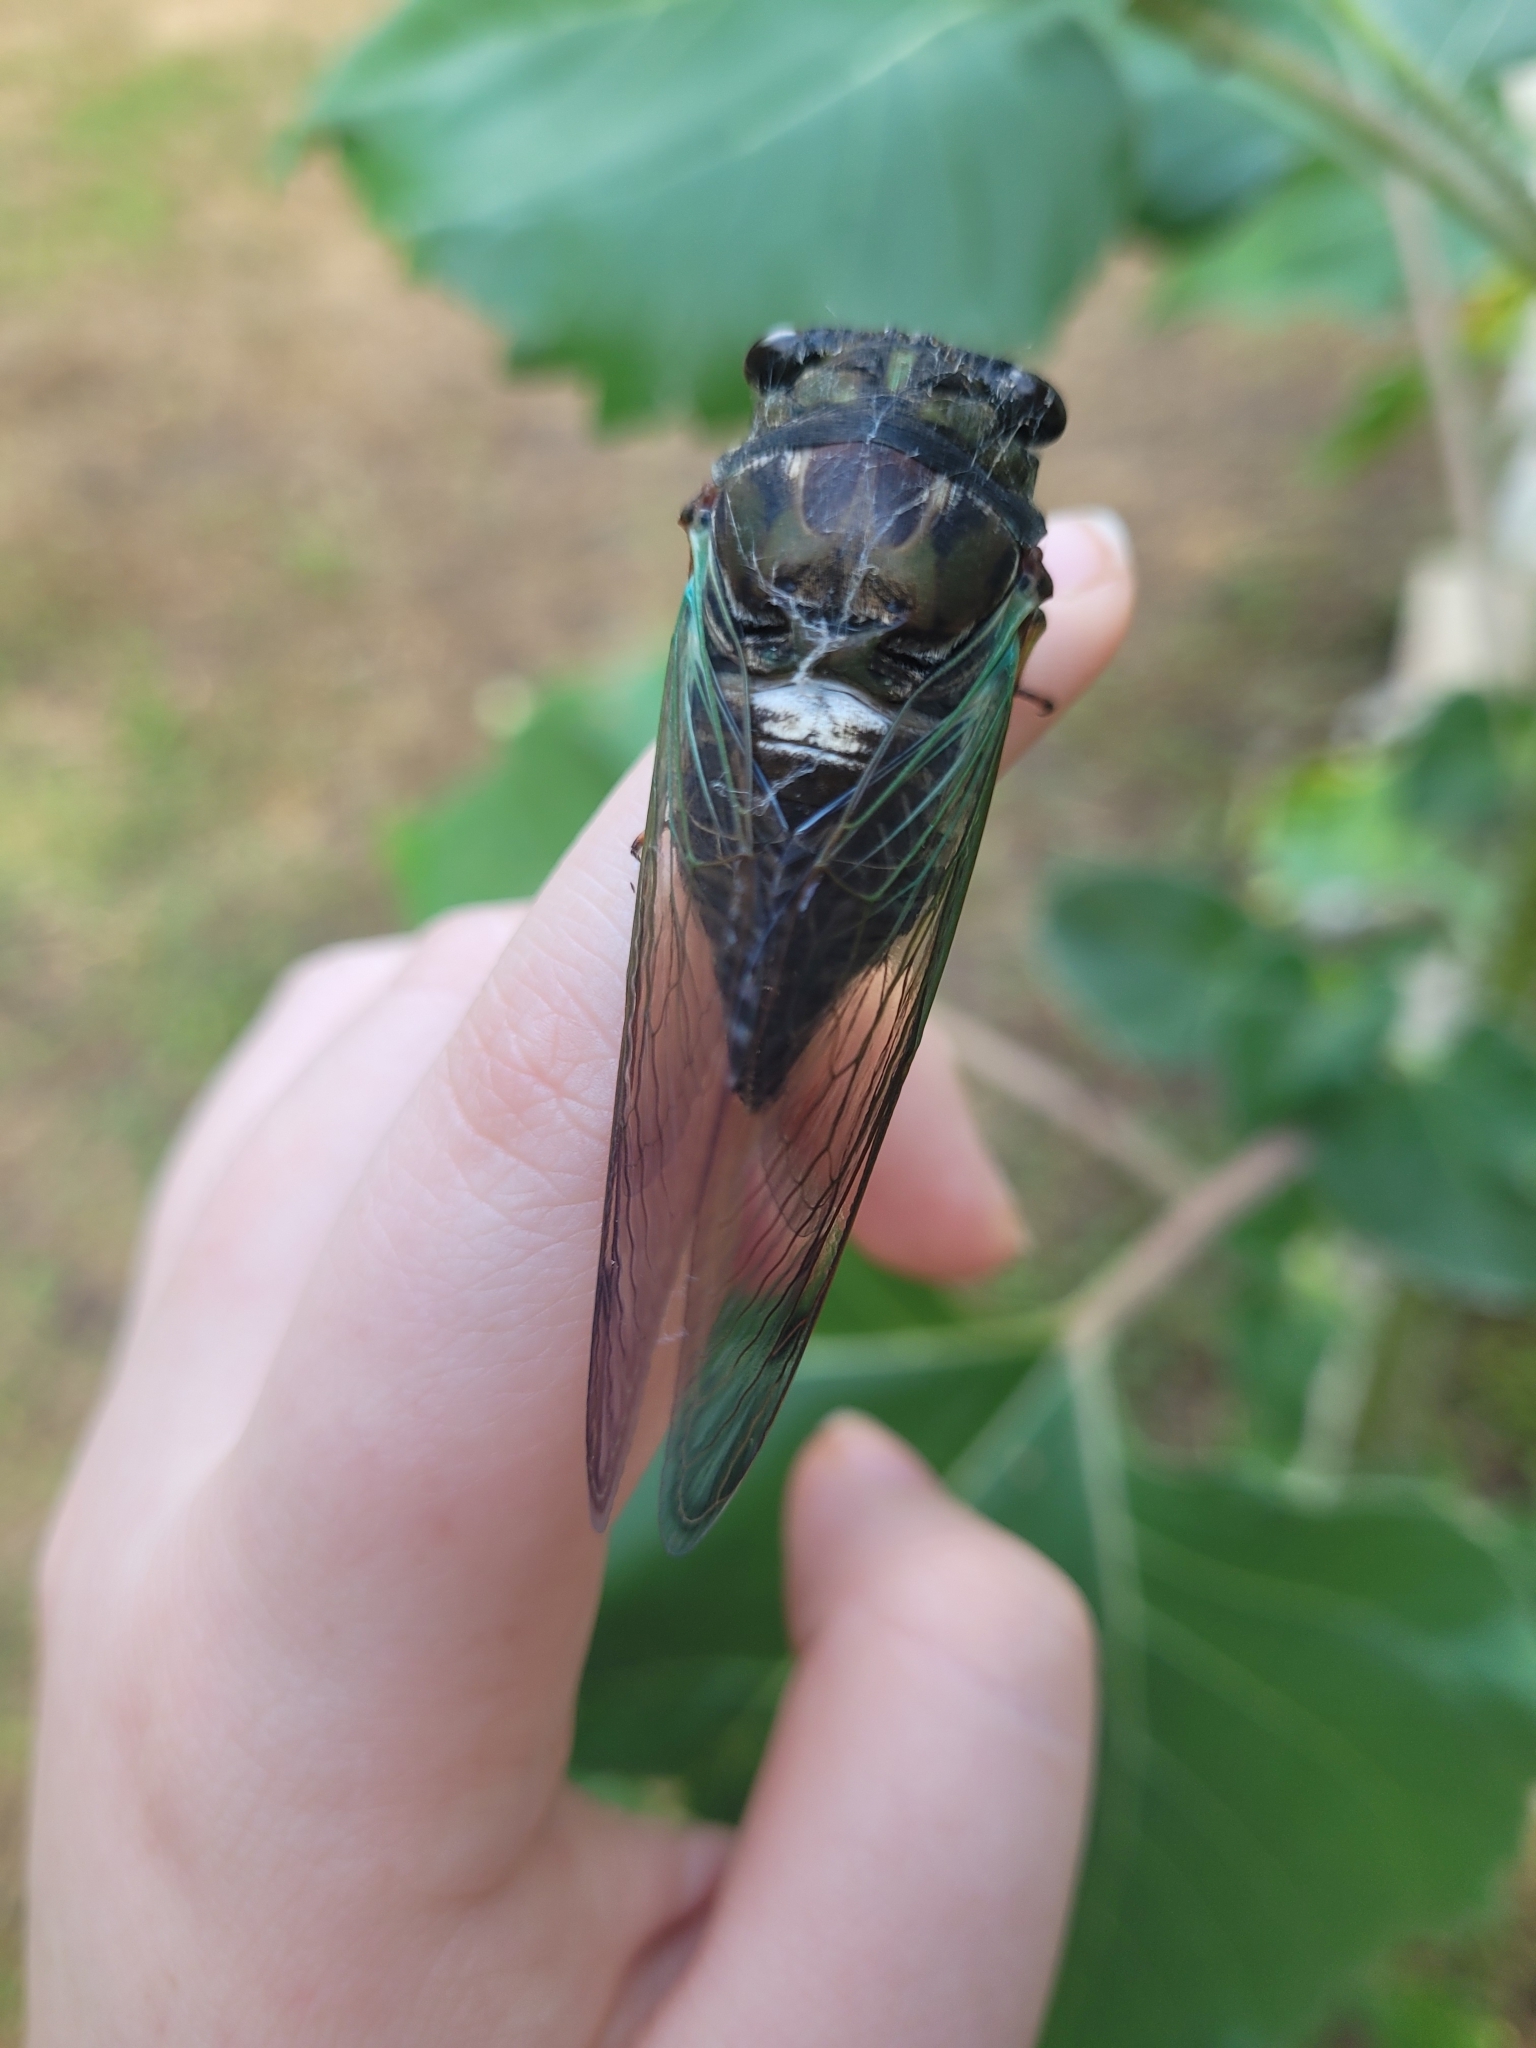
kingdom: Animalia
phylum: Arthropoda
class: Insecta
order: Hemiptera
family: Cicadidae
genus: Neotibicen
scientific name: Neotibicen lyricen
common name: Lyric cicada
